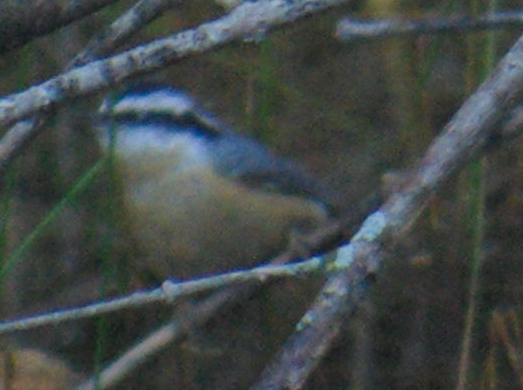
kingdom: Animalia
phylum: Chordata
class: Aves
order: Passeriformes
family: Sittidae
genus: Sitta
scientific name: Sitta canadensis
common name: Red-breasted nuthatch
